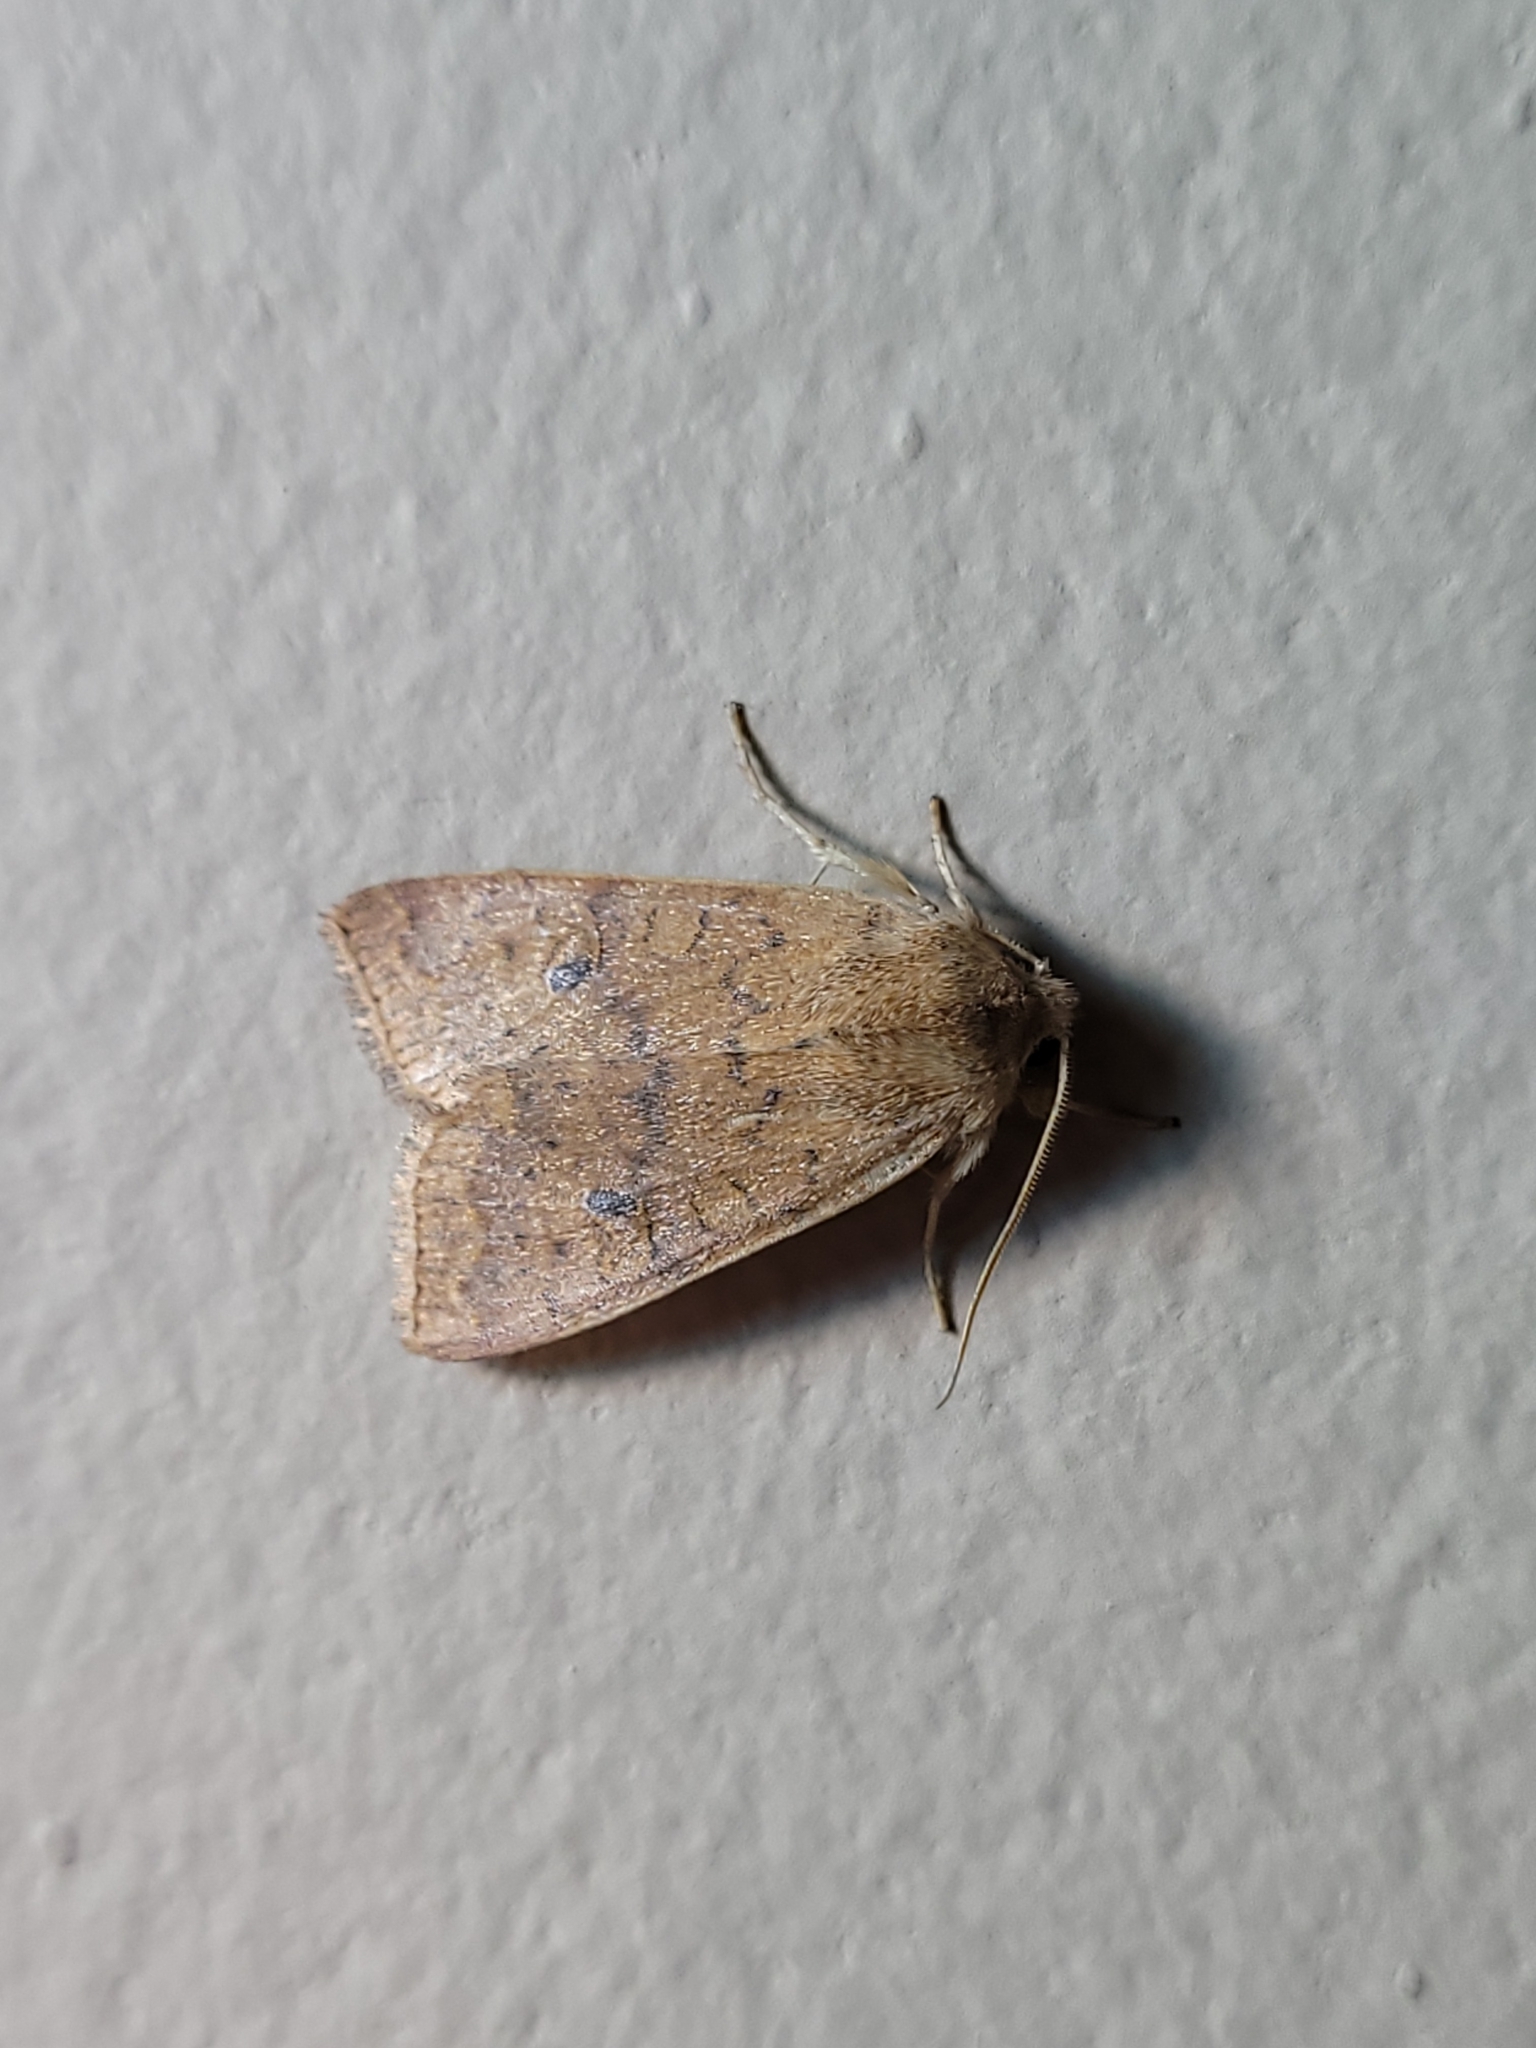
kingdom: Animalia
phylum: Arthropoda
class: Insecta
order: Lepidoptera
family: Noctuidae
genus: Agrochola
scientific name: Agrochola bicolorago
